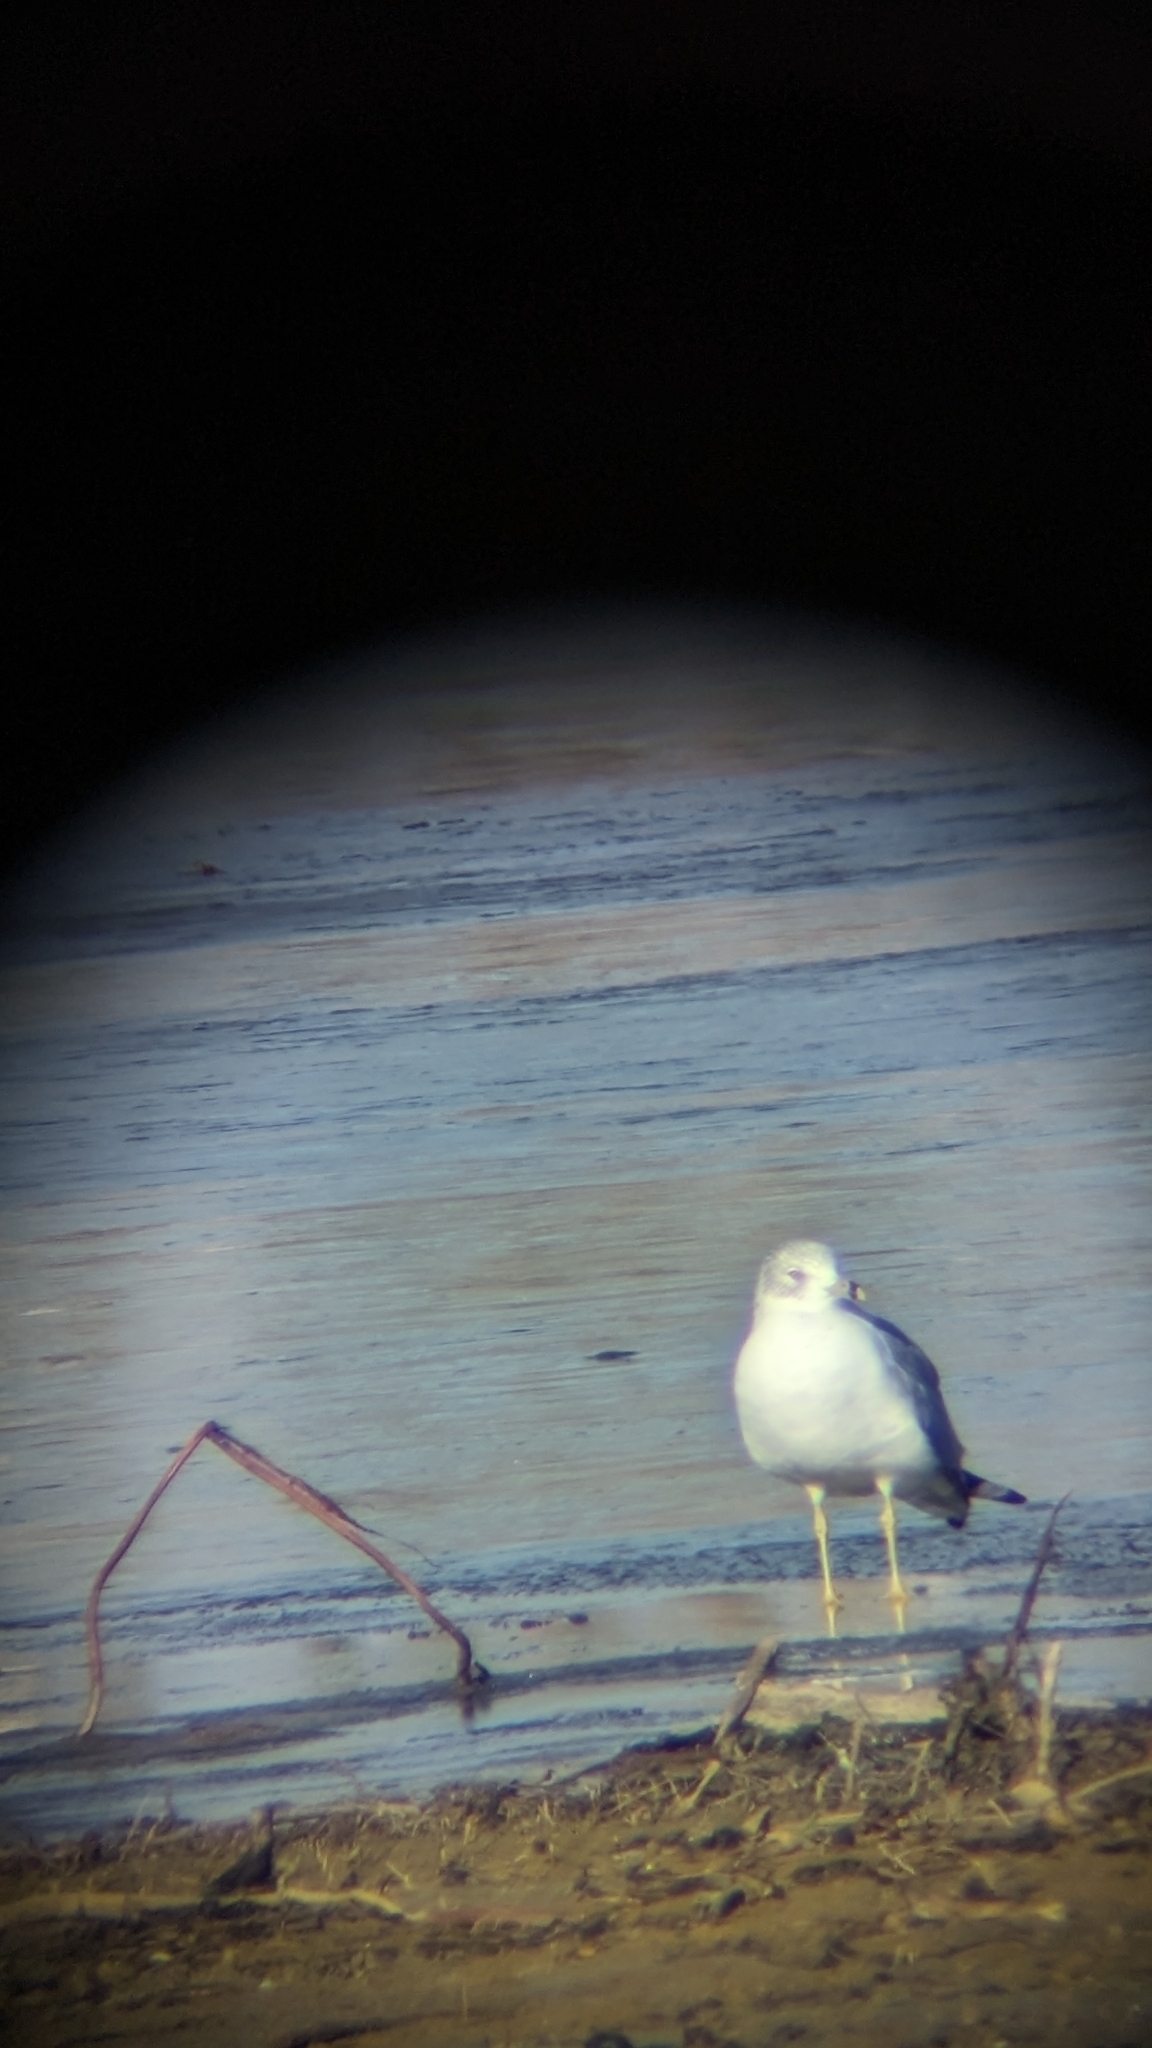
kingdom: Animalia
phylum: Chordata
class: Aves
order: Charadriiformes
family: Laridae
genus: Larus
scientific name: Larus delawarensis
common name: Ring-billed gull
